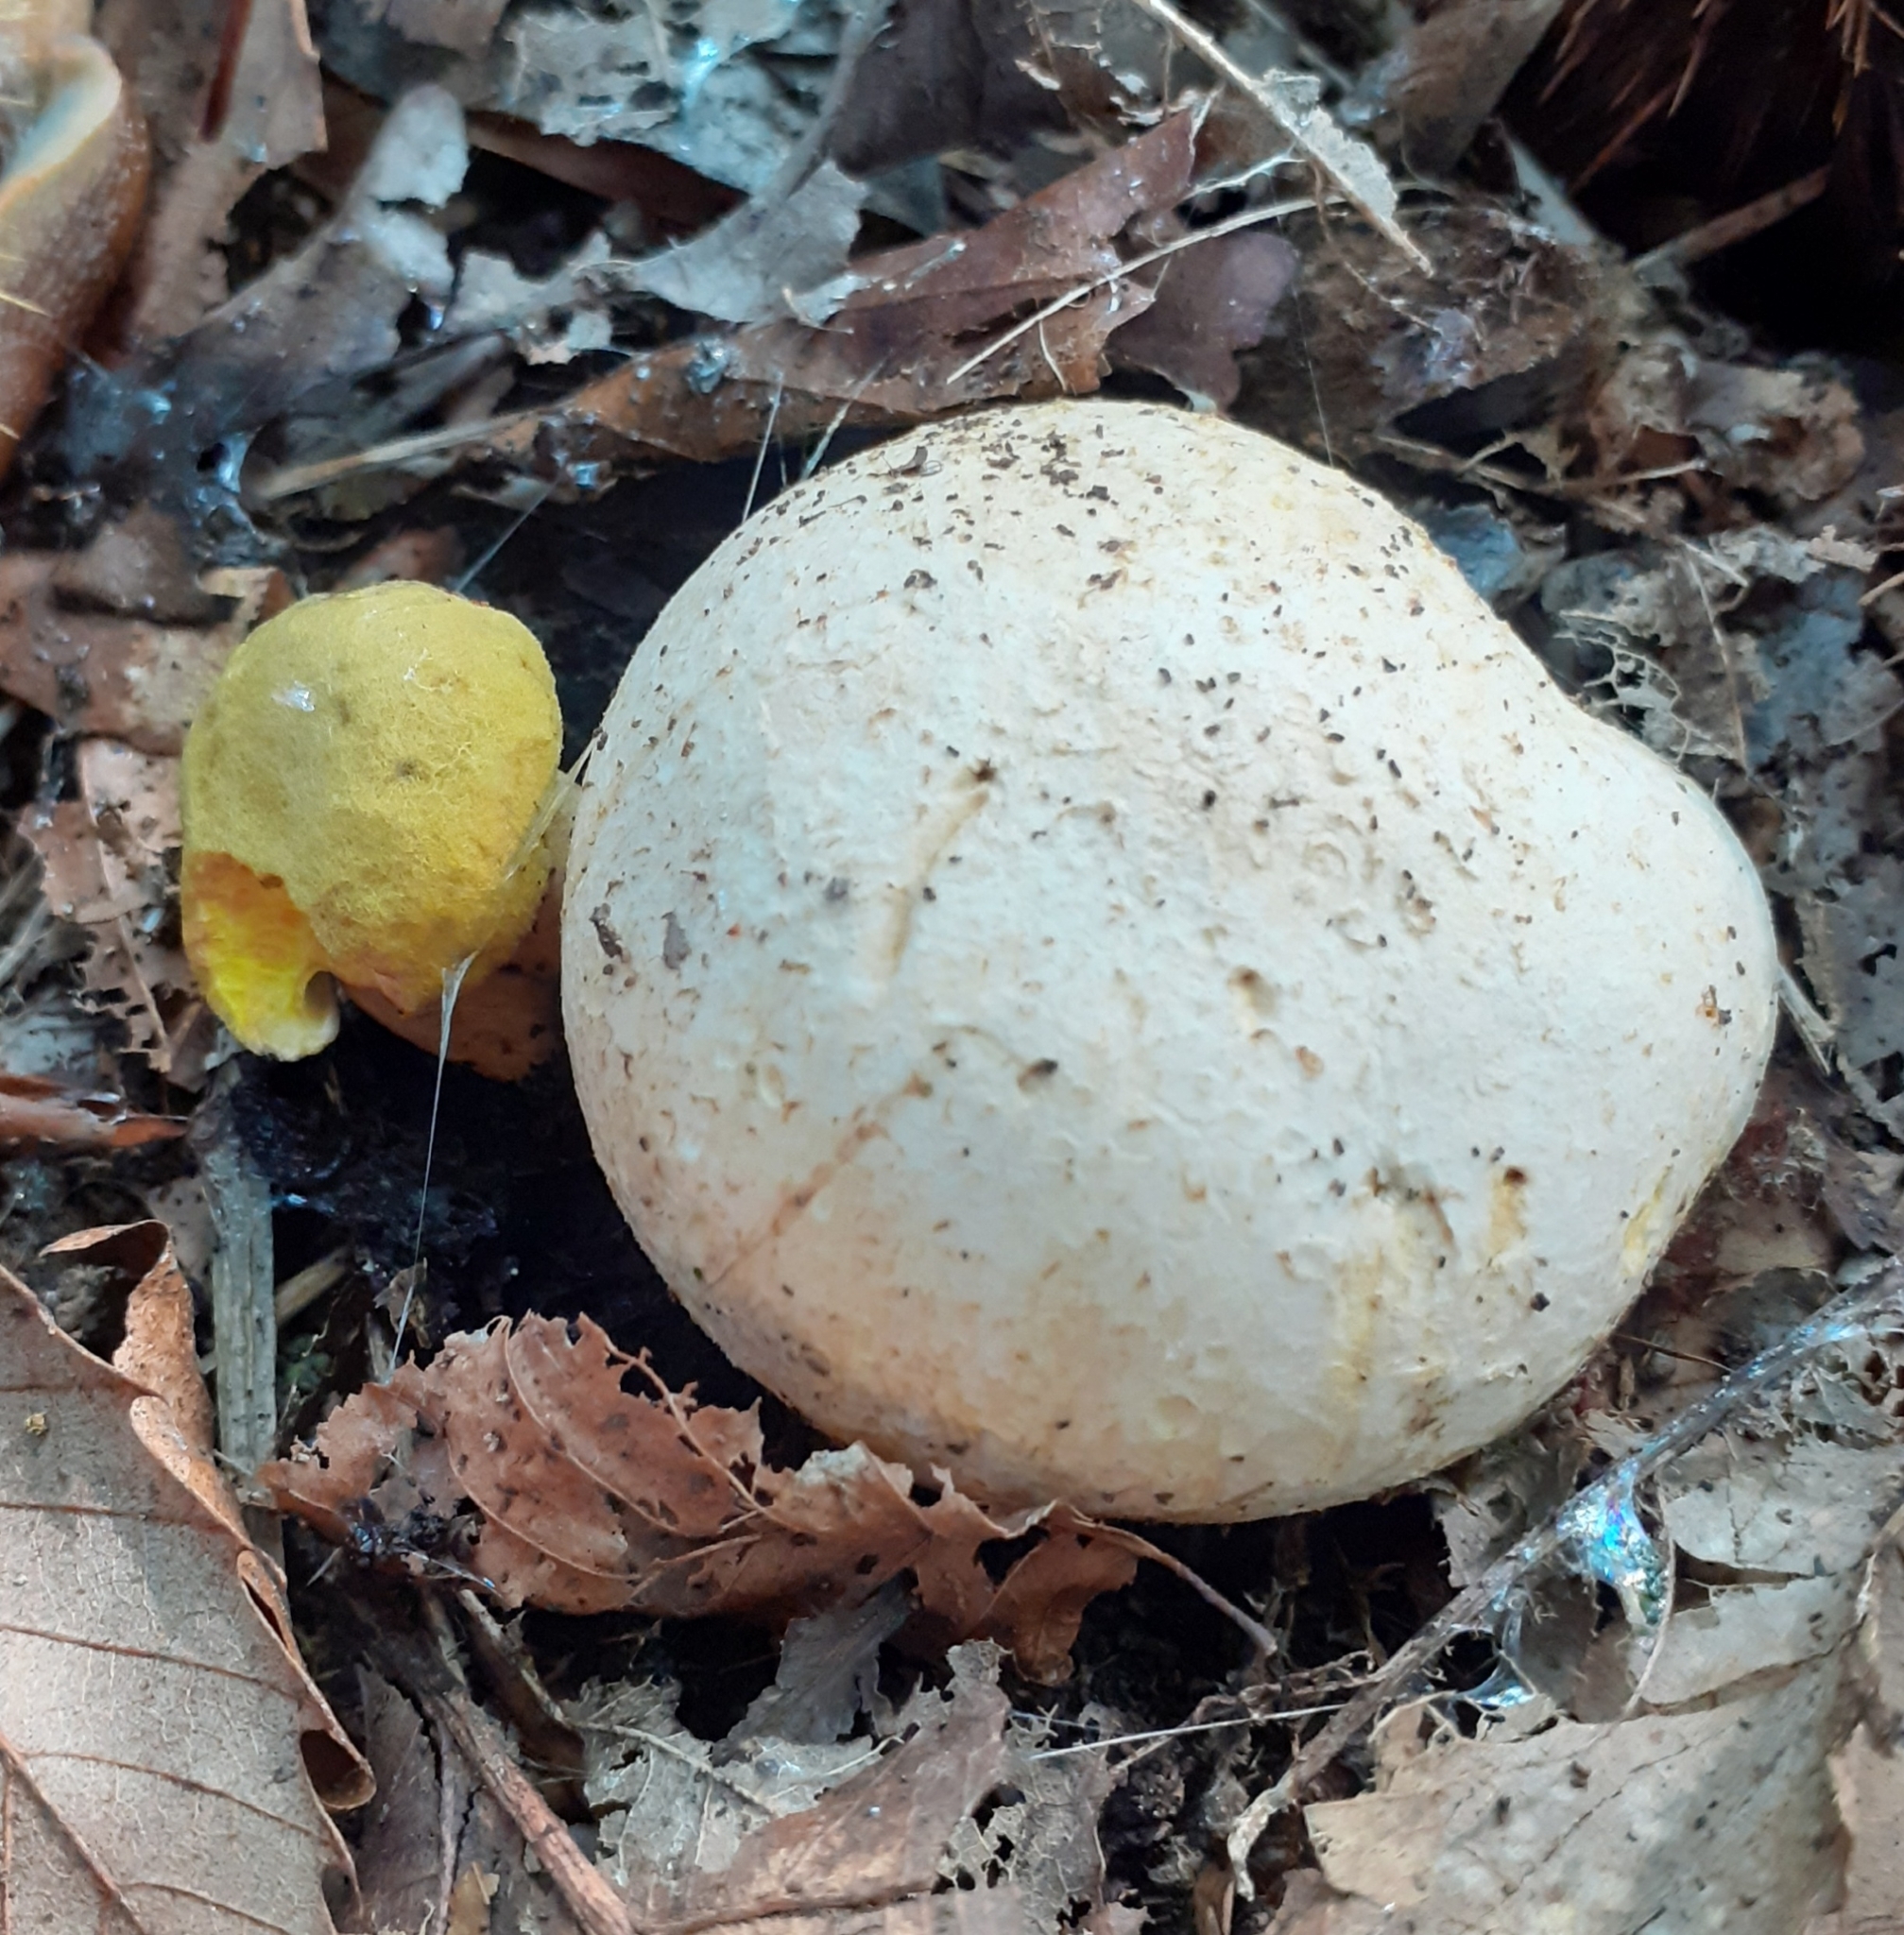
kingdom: Fungi
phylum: Basidiomycota
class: Agaricomycetes
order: Boletales
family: Boletaceae
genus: Pseudoboletus
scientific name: Pseudoboletus parasiticus
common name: Parasitic bolete
